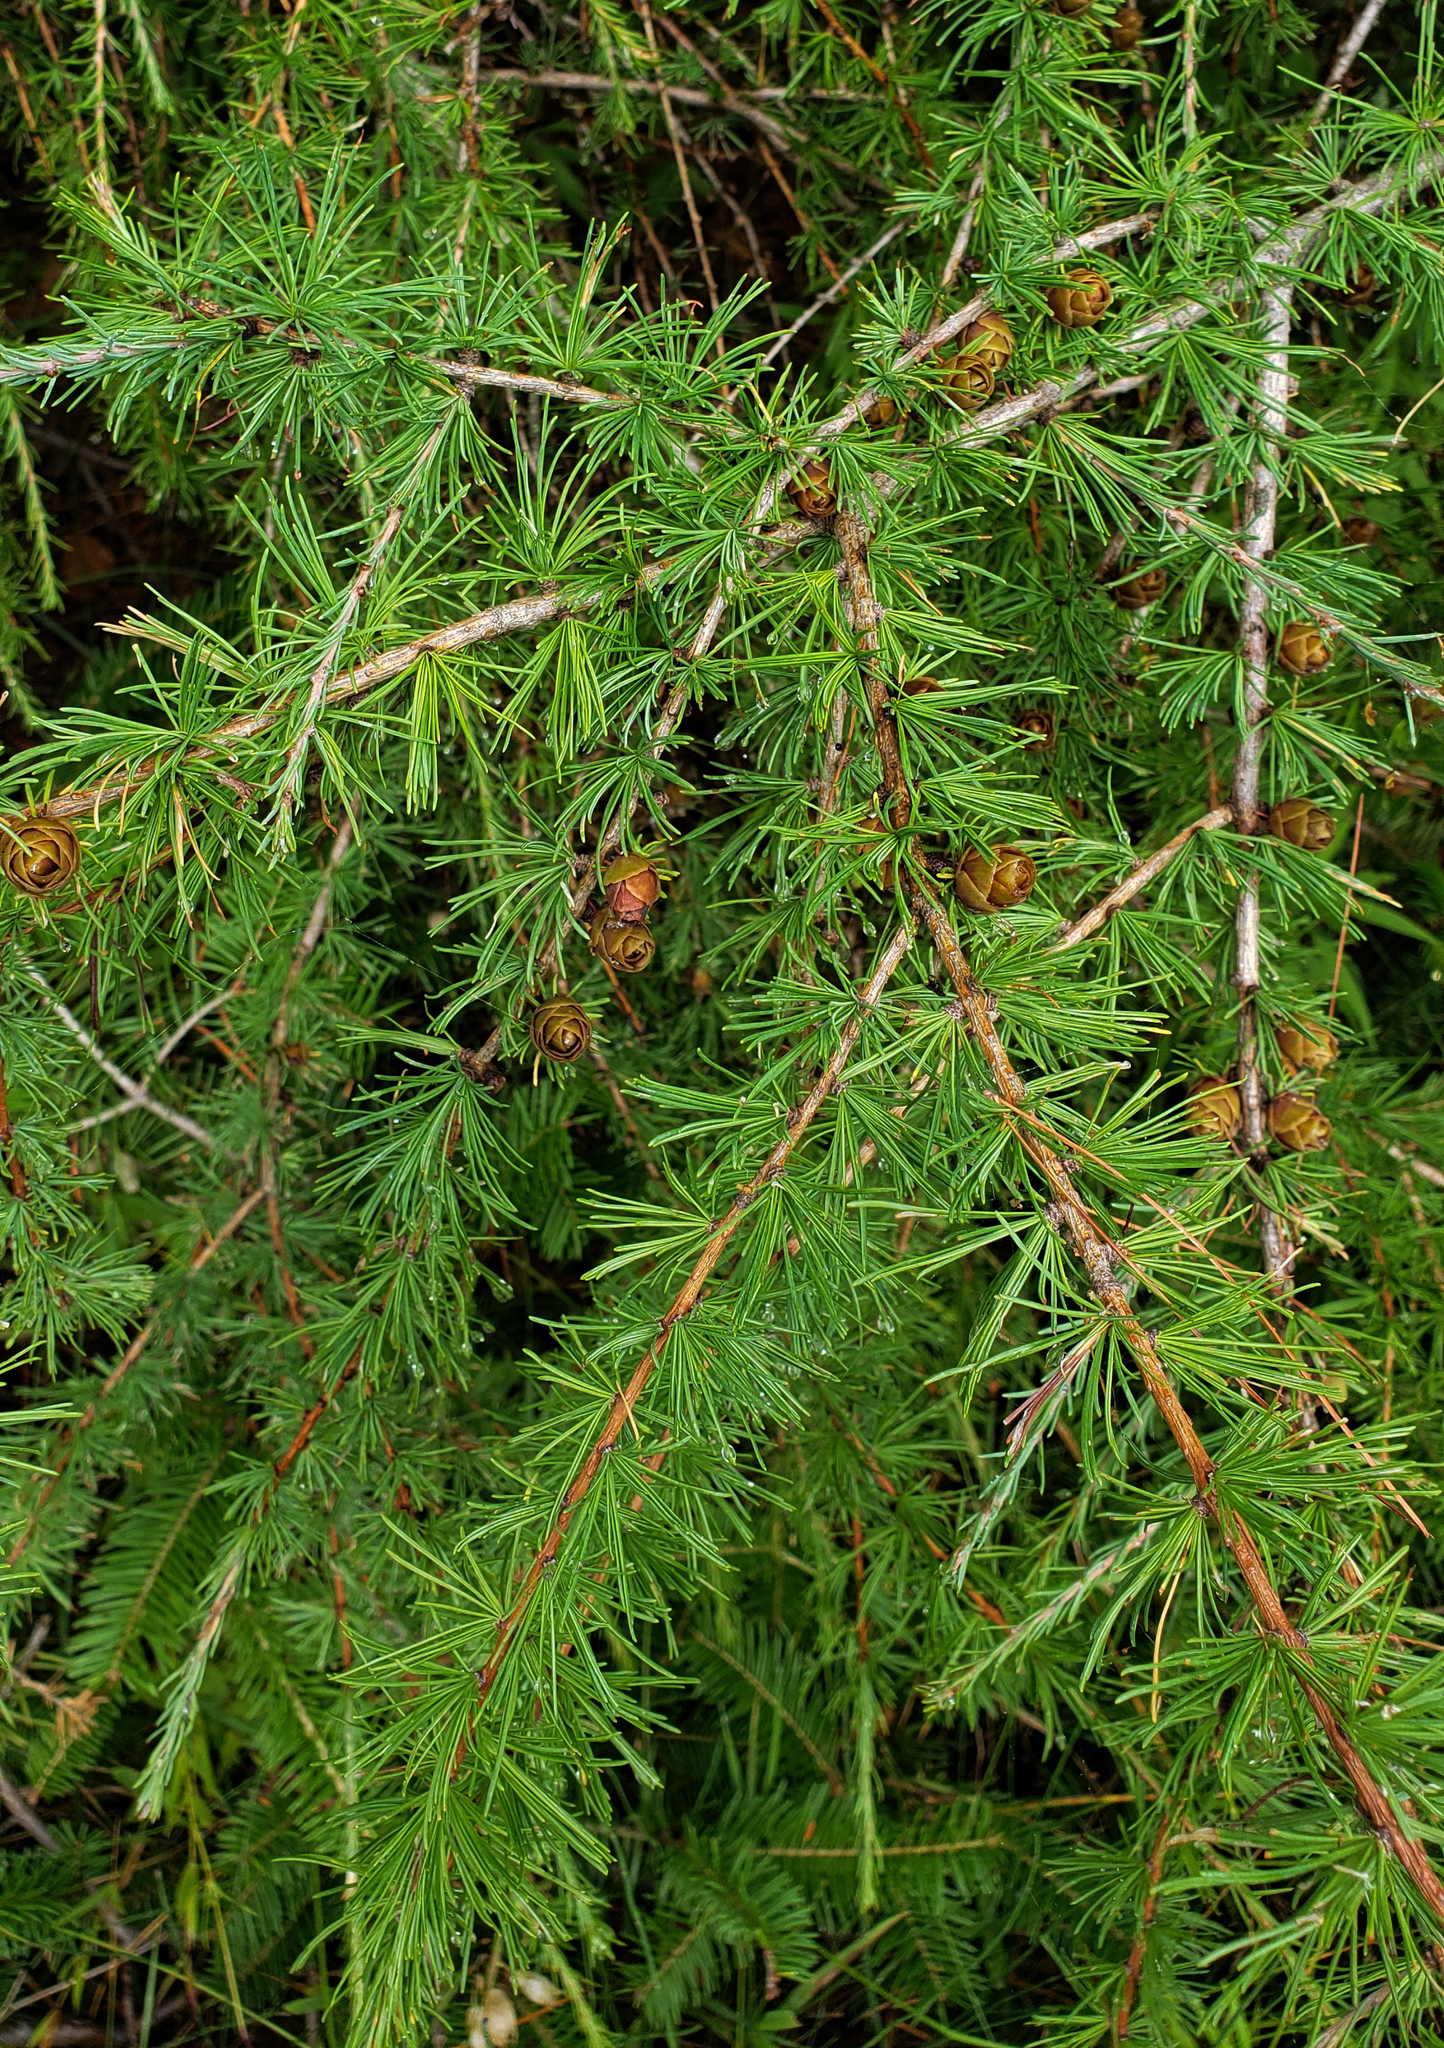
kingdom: Plantae
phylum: Tracheophyta
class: Pinopsida
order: Pinales
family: Pinaceae
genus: Larix
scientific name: Larix laricina
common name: American larch
